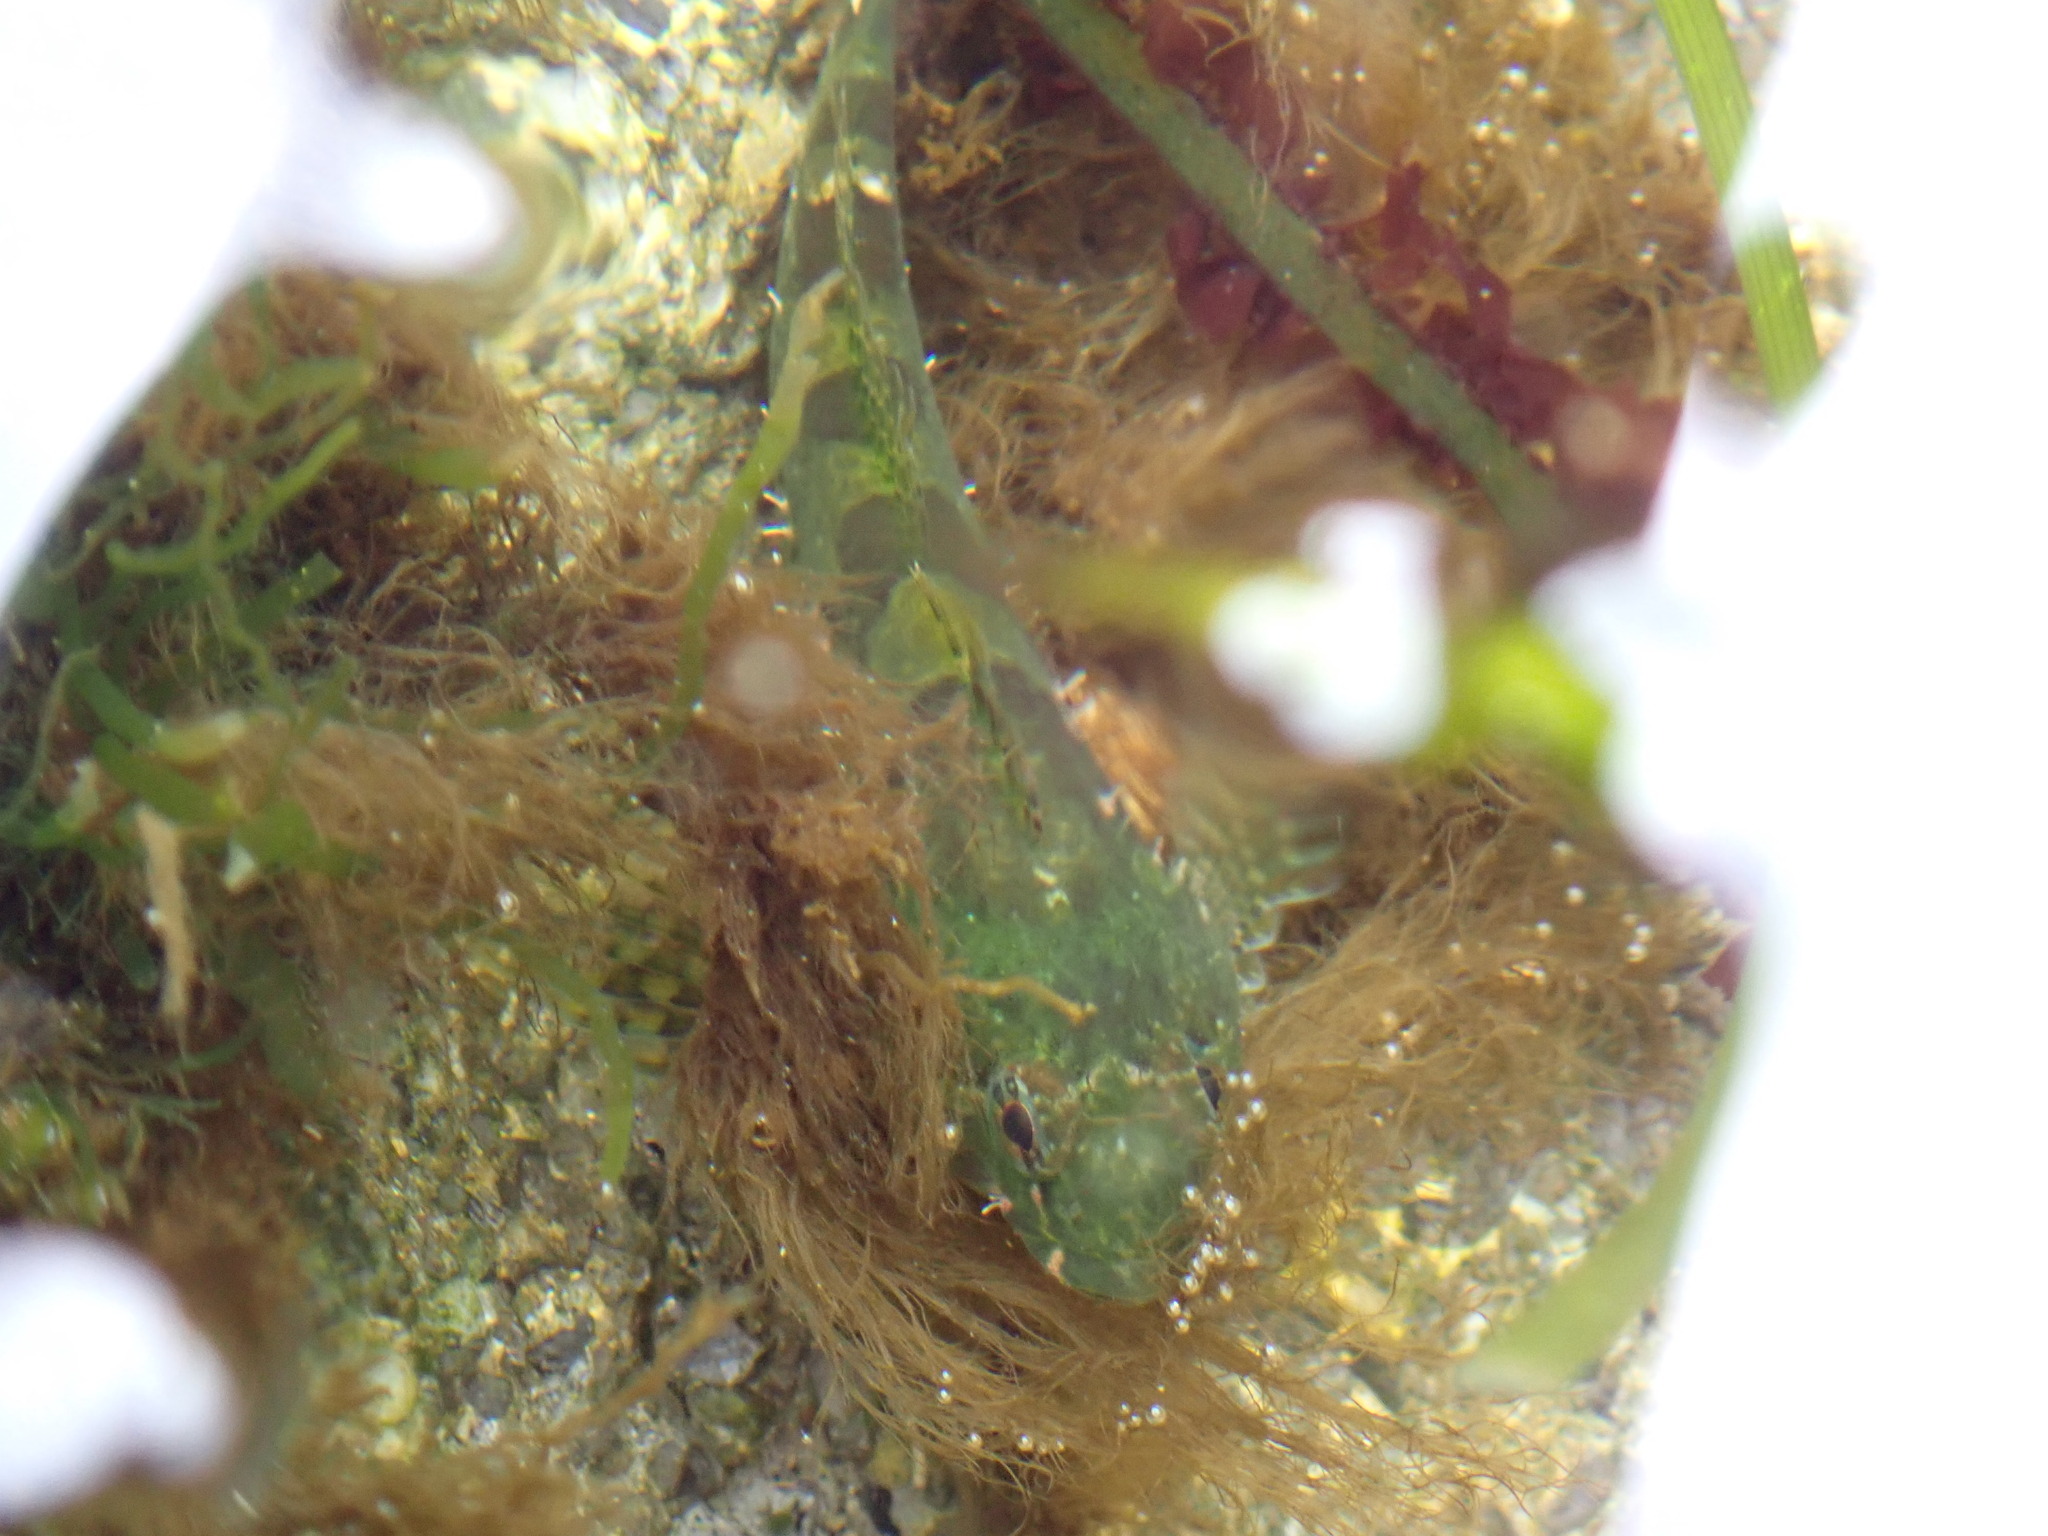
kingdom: Animalia
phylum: Chordata
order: Scorpaeniformes
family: Cottidae
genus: Oligocottus
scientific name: Oligocottus maculosus
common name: Tidepool sculpin
